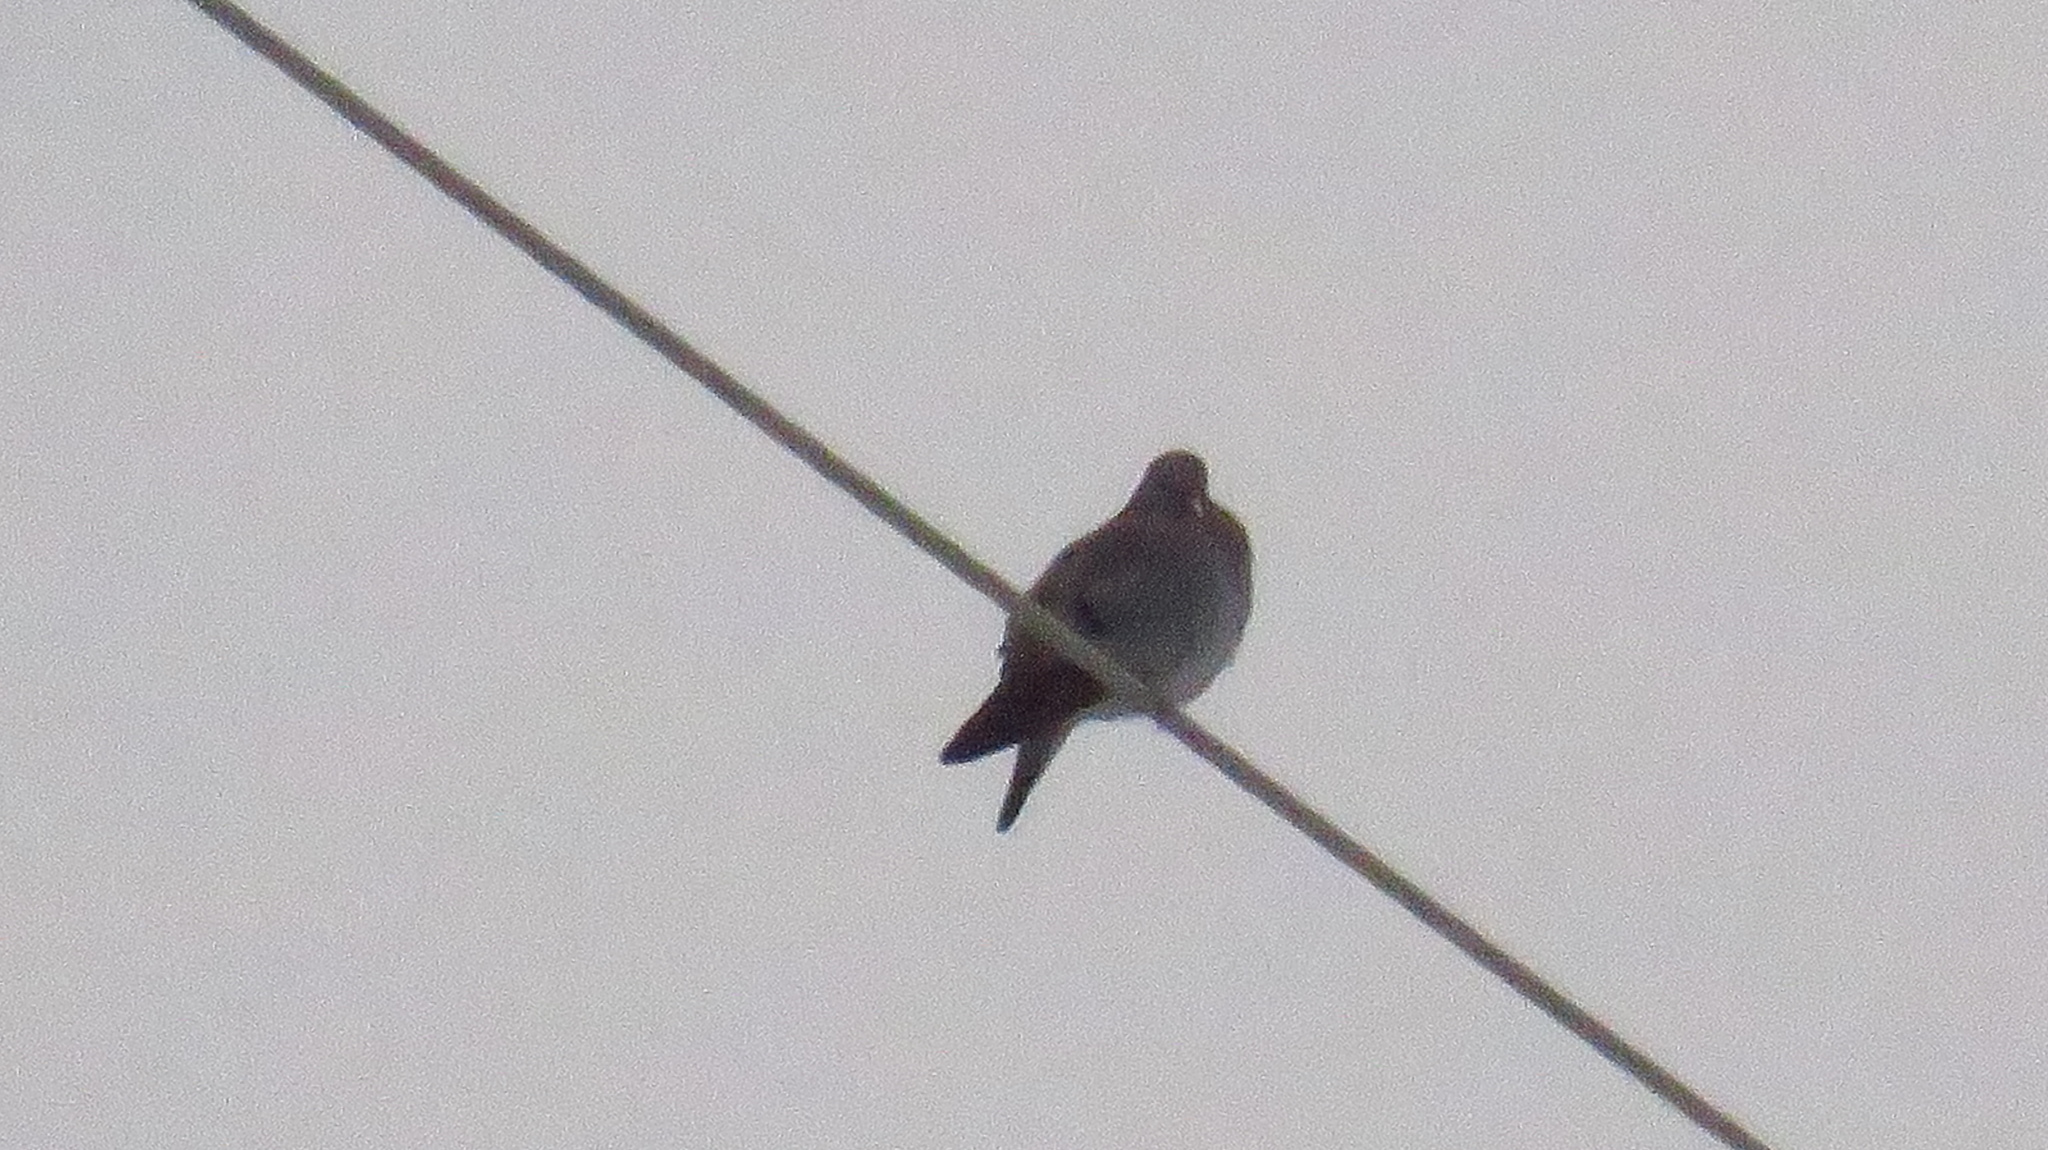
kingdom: Animalia
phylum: Chordata
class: Aves
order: Columbiformes
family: Columbidae
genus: Columba
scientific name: Columba oenas
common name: Stock dove
